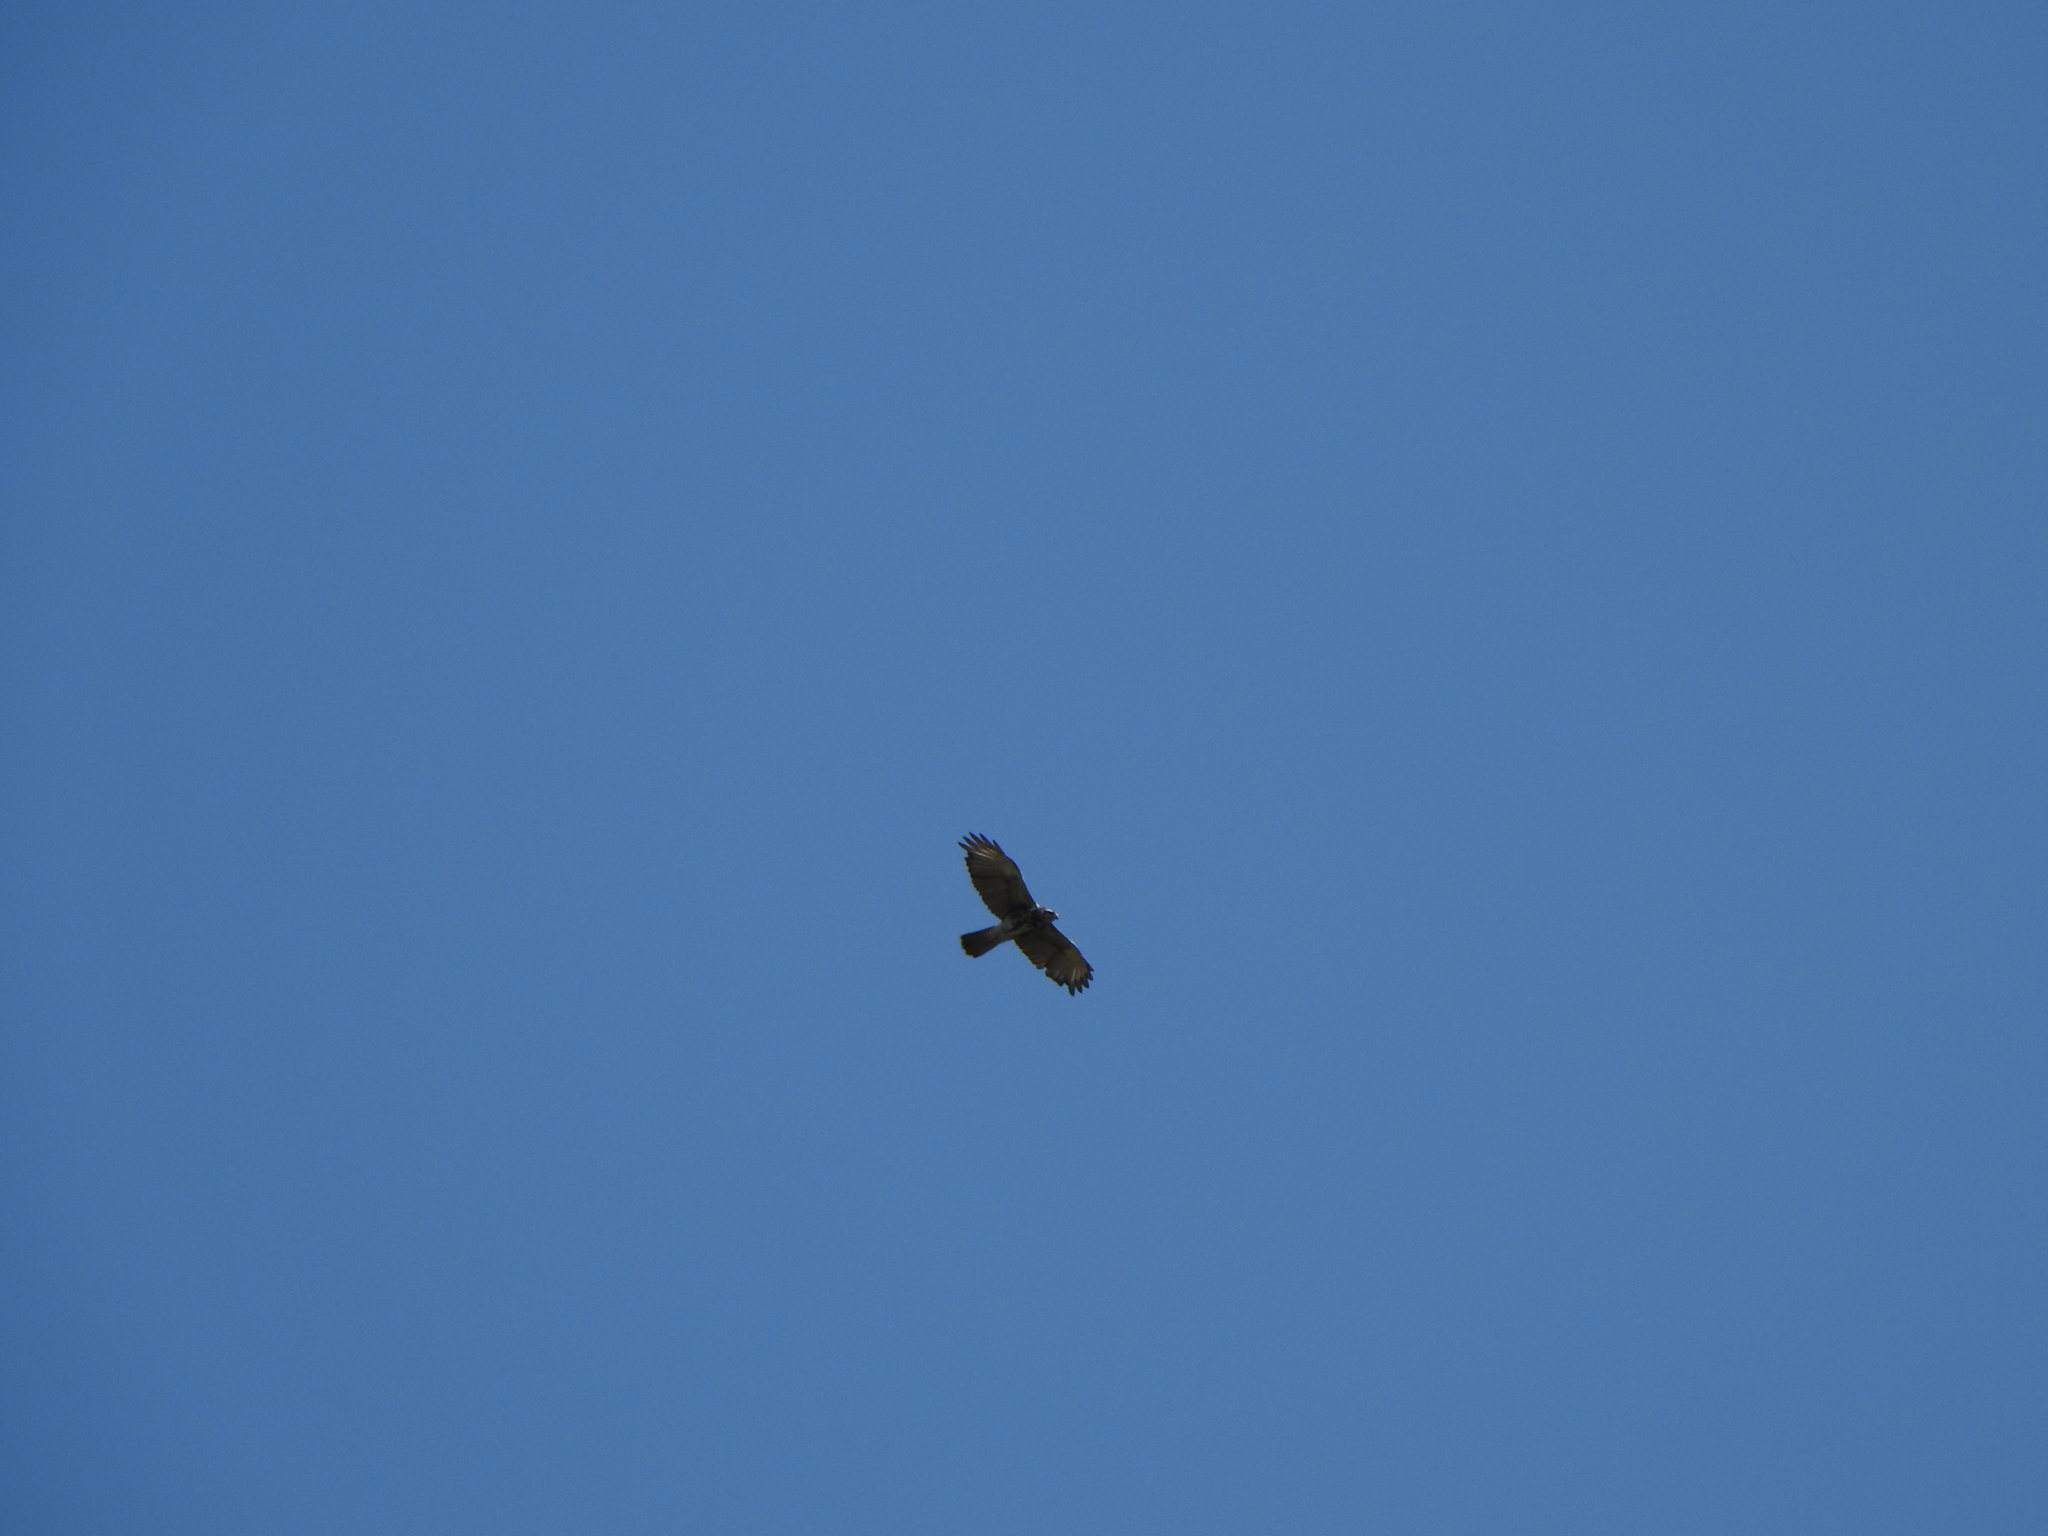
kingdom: Animalia
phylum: Chordata
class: Aves
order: Accipitriformes
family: Accipitridae
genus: Parabuteo
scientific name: Parabuteo unicinctus
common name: Harris's hawk
